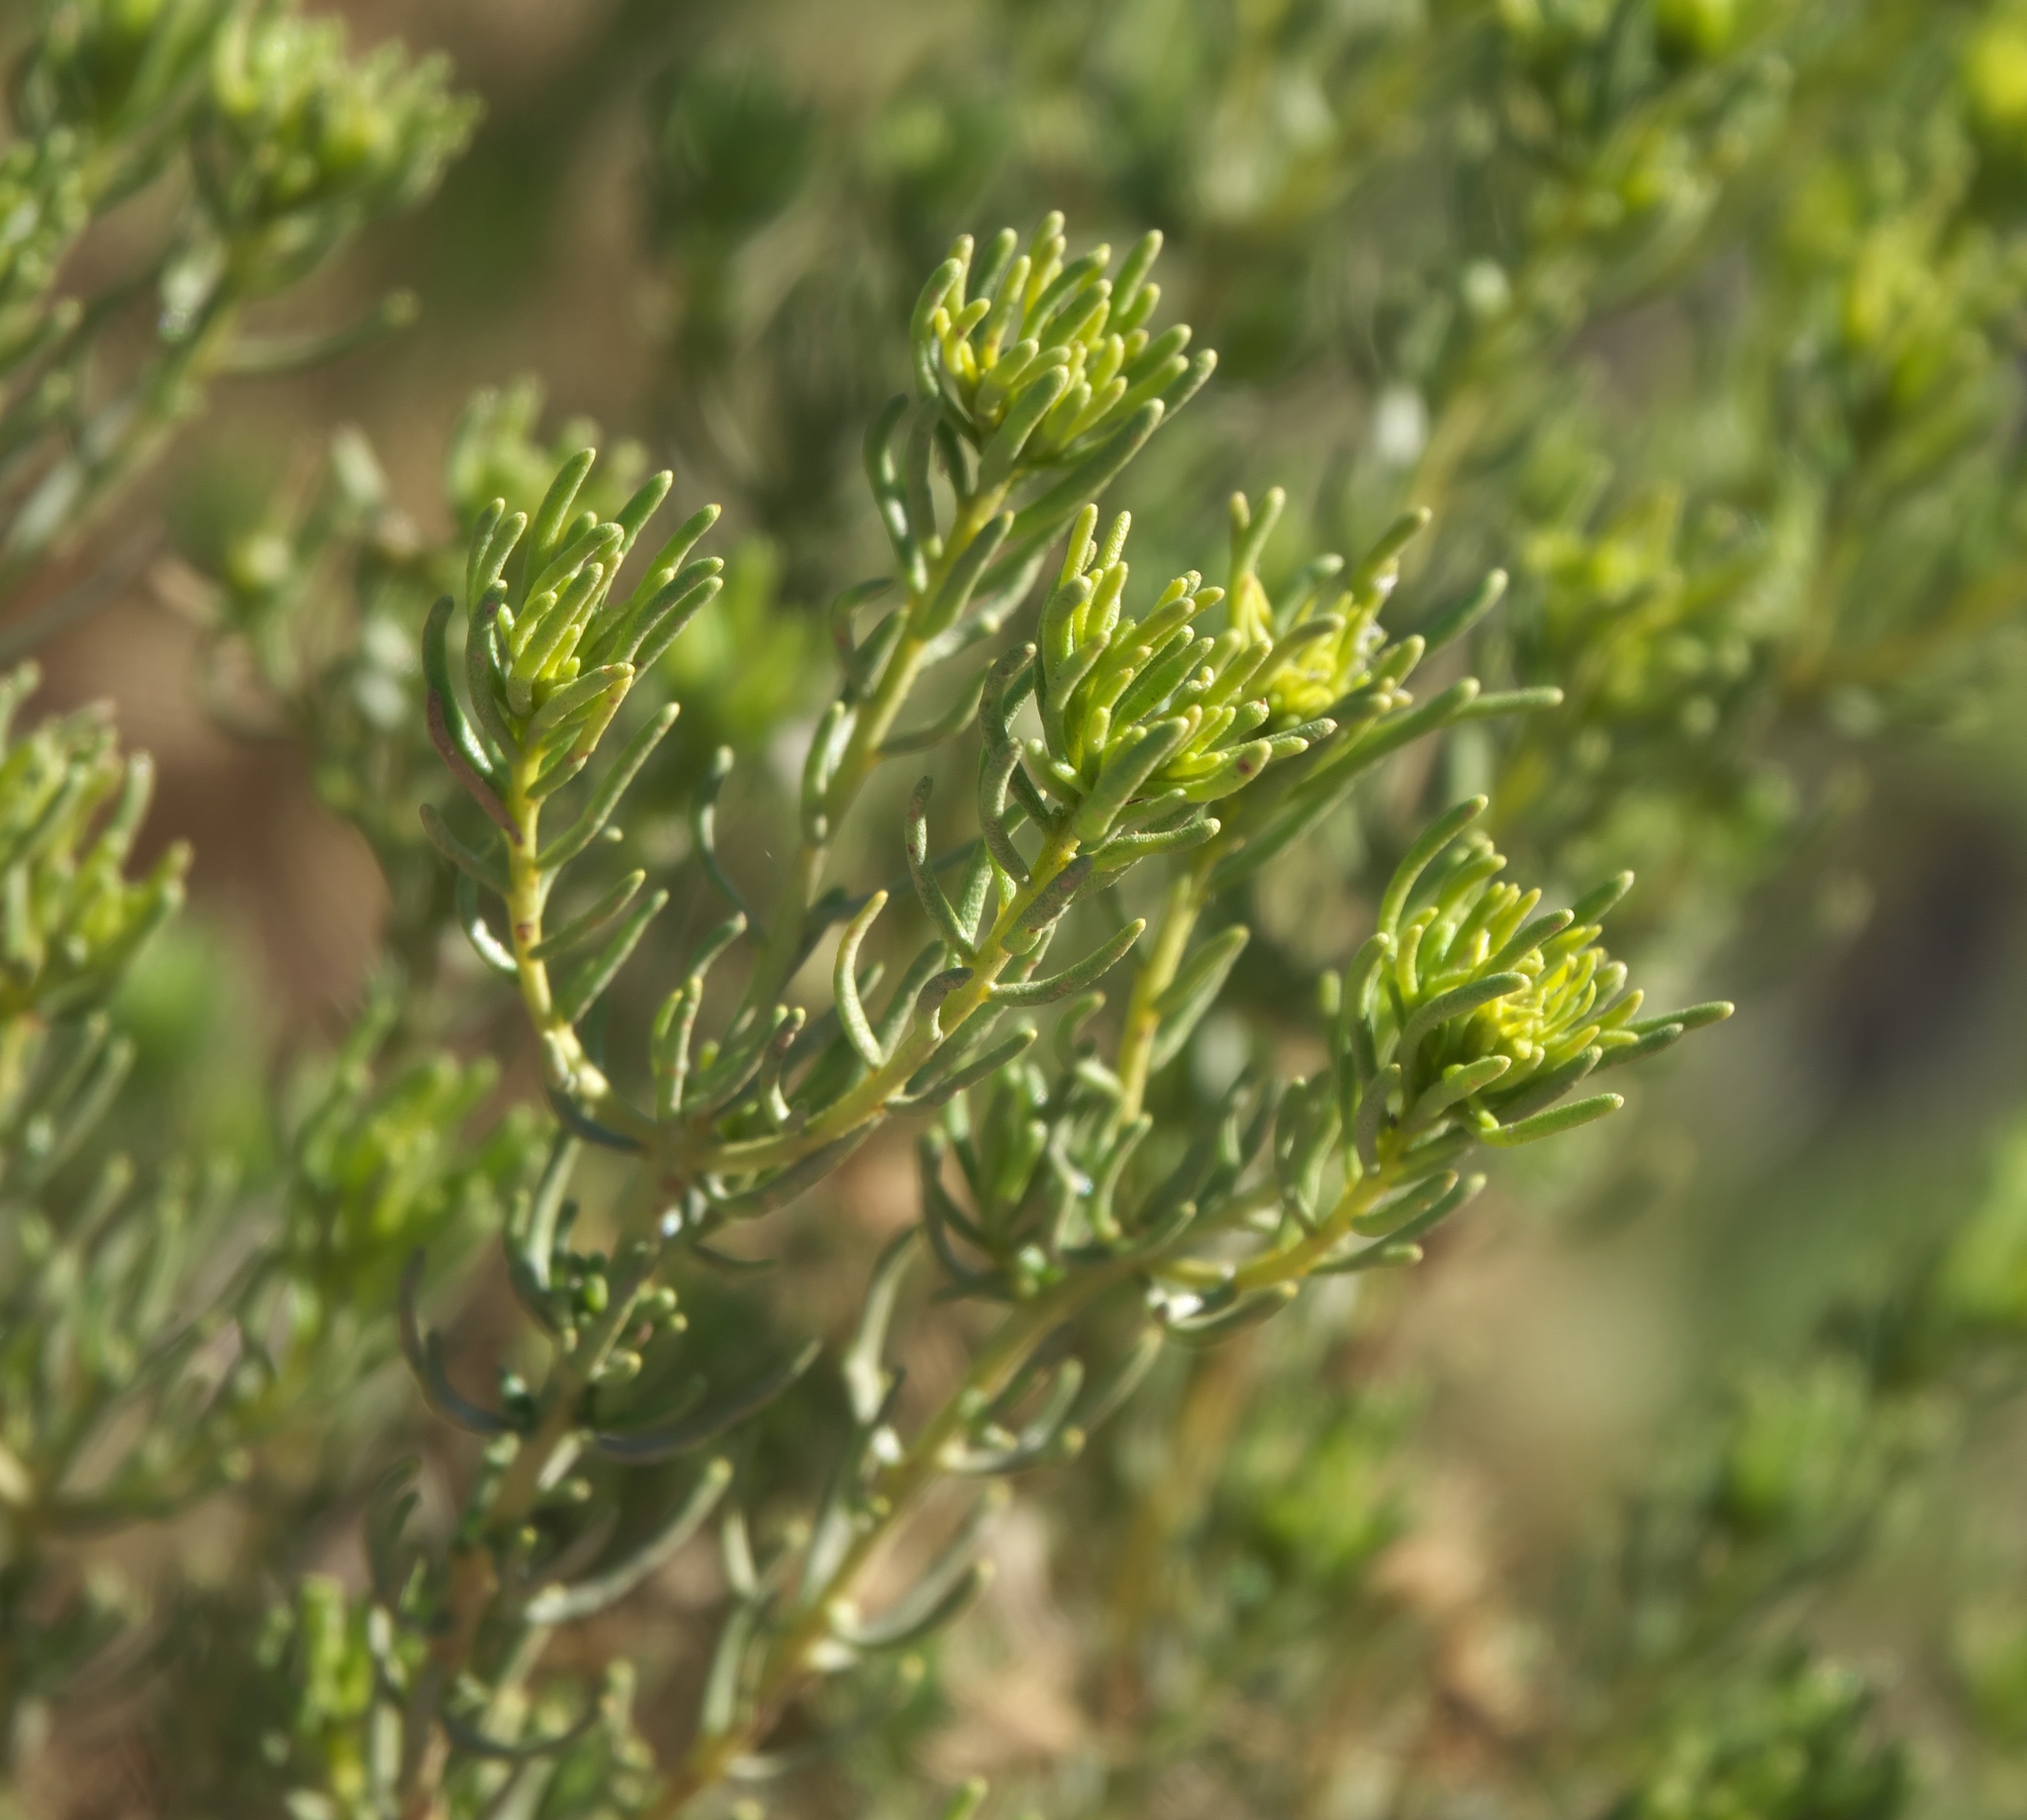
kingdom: Plantae
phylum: Tracheophyta
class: Magnoliopsida
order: Asterales
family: Asteraceae
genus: Peucephyllum
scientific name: Peucephyllum schottii
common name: Pygmy-cedar
